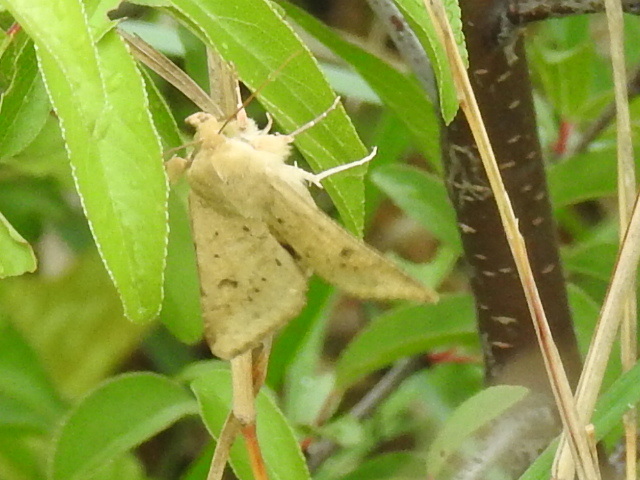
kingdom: Animalia
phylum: Arthropoda
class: Insecta
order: Lepidoptera
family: Noctuidae
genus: Helicoverpa
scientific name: Helicoverpa zea
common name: Bollworm
